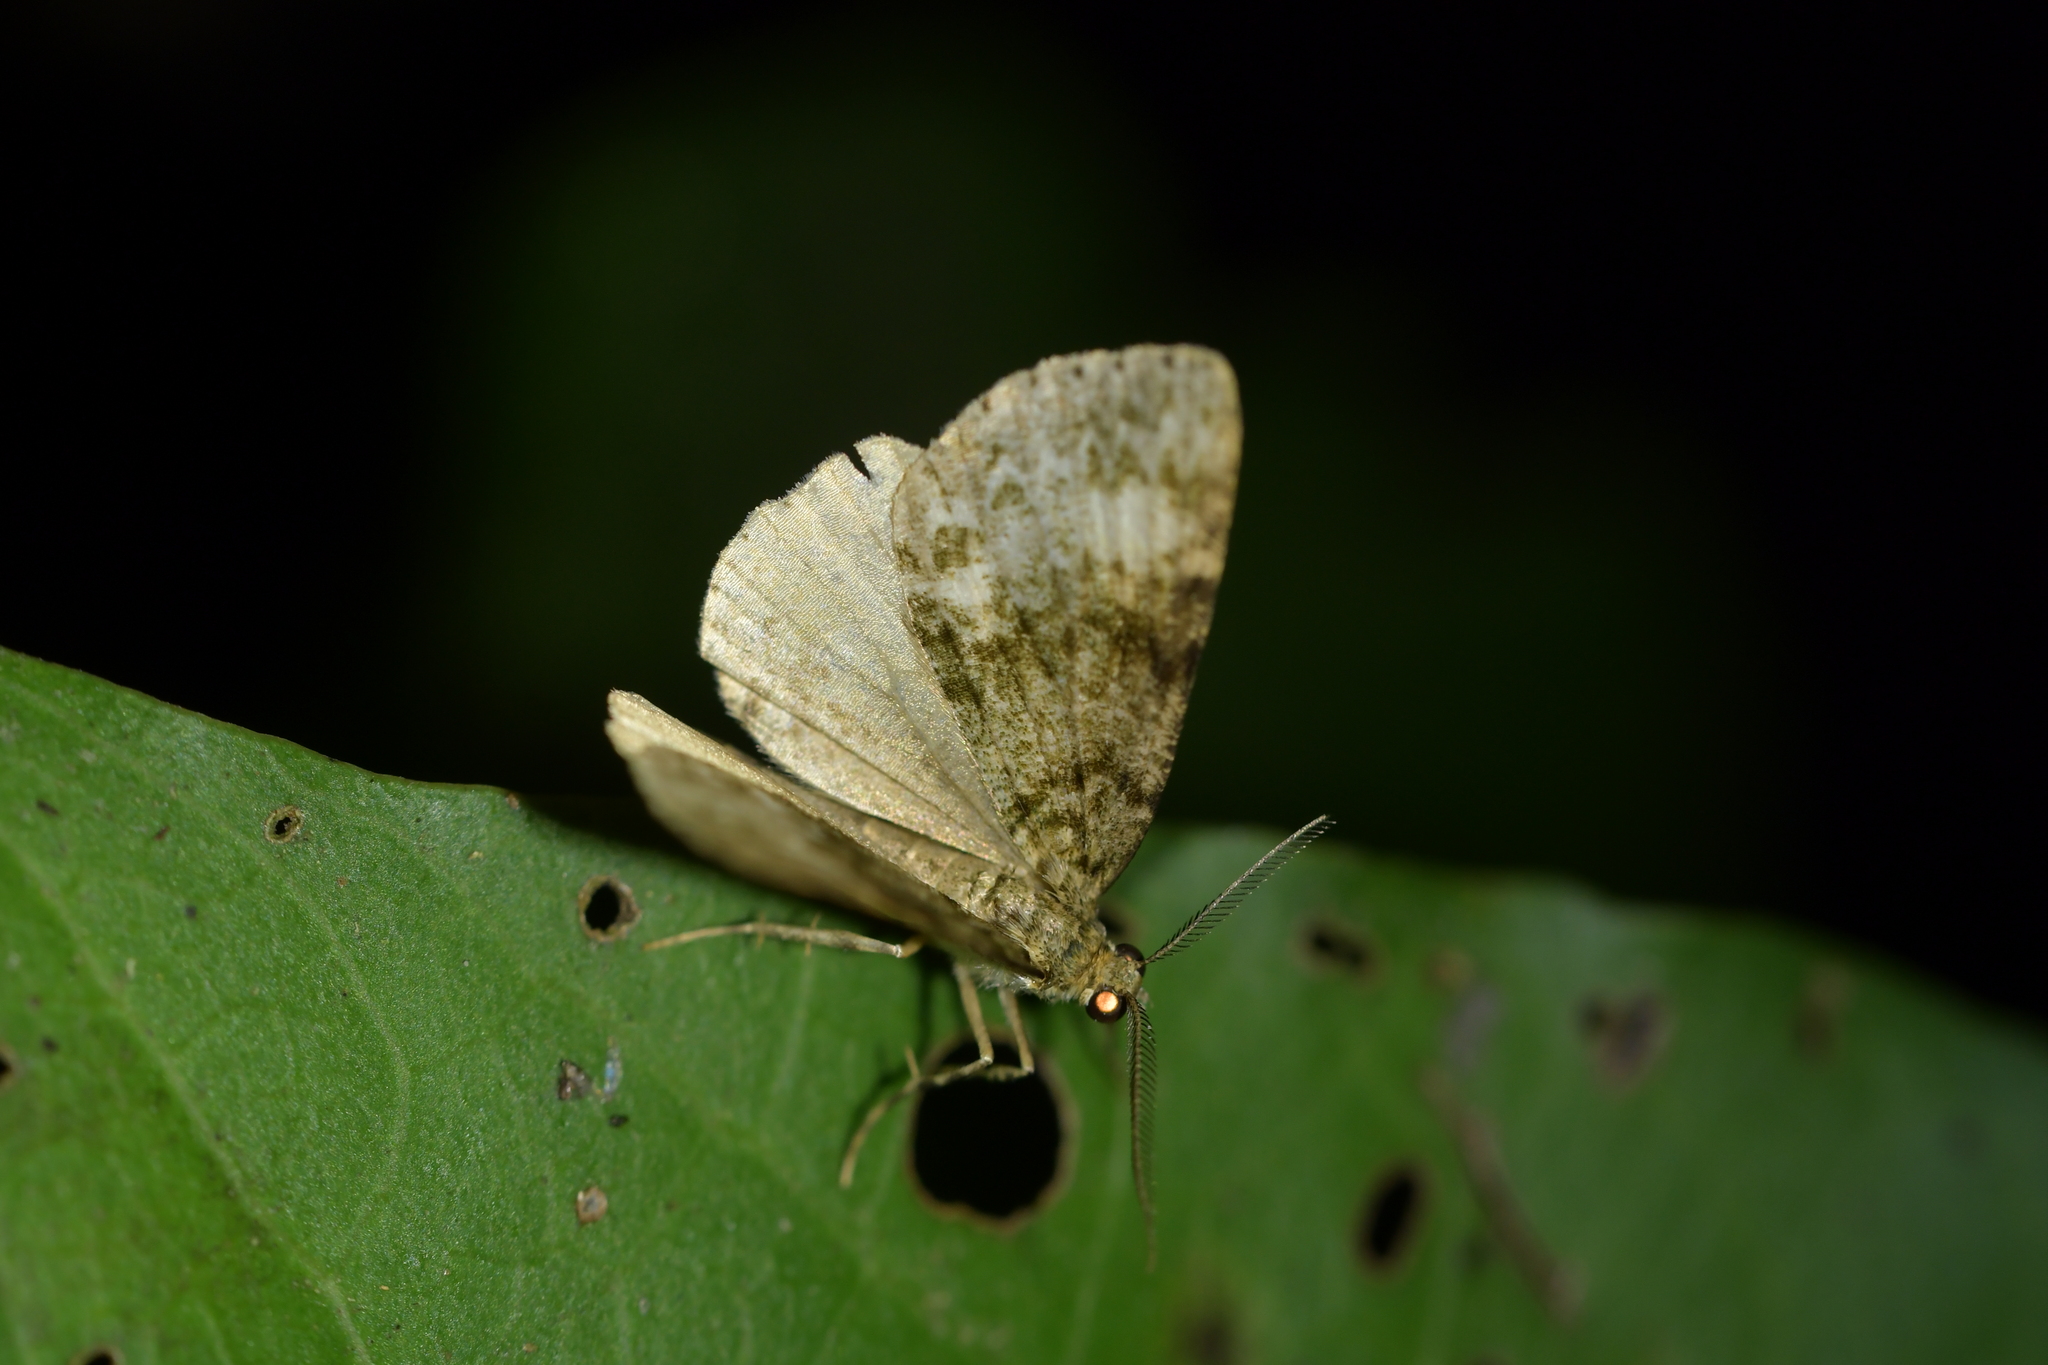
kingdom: Animalia
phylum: Arthropoda
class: Insecta
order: Lepidoptera
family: Geometridae
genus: Pseudocoremia
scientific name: Pseudocoremia indistincta
